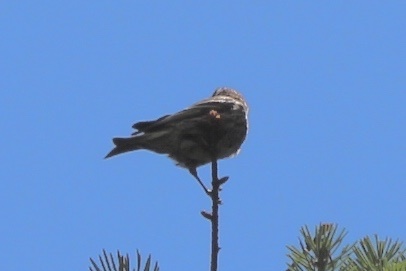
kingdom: Animalia
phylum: Chordata
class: Aves
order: Passeriformes
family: Fringillidae
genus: Spinus
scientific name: Spinus pinus
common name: Pine siskin
